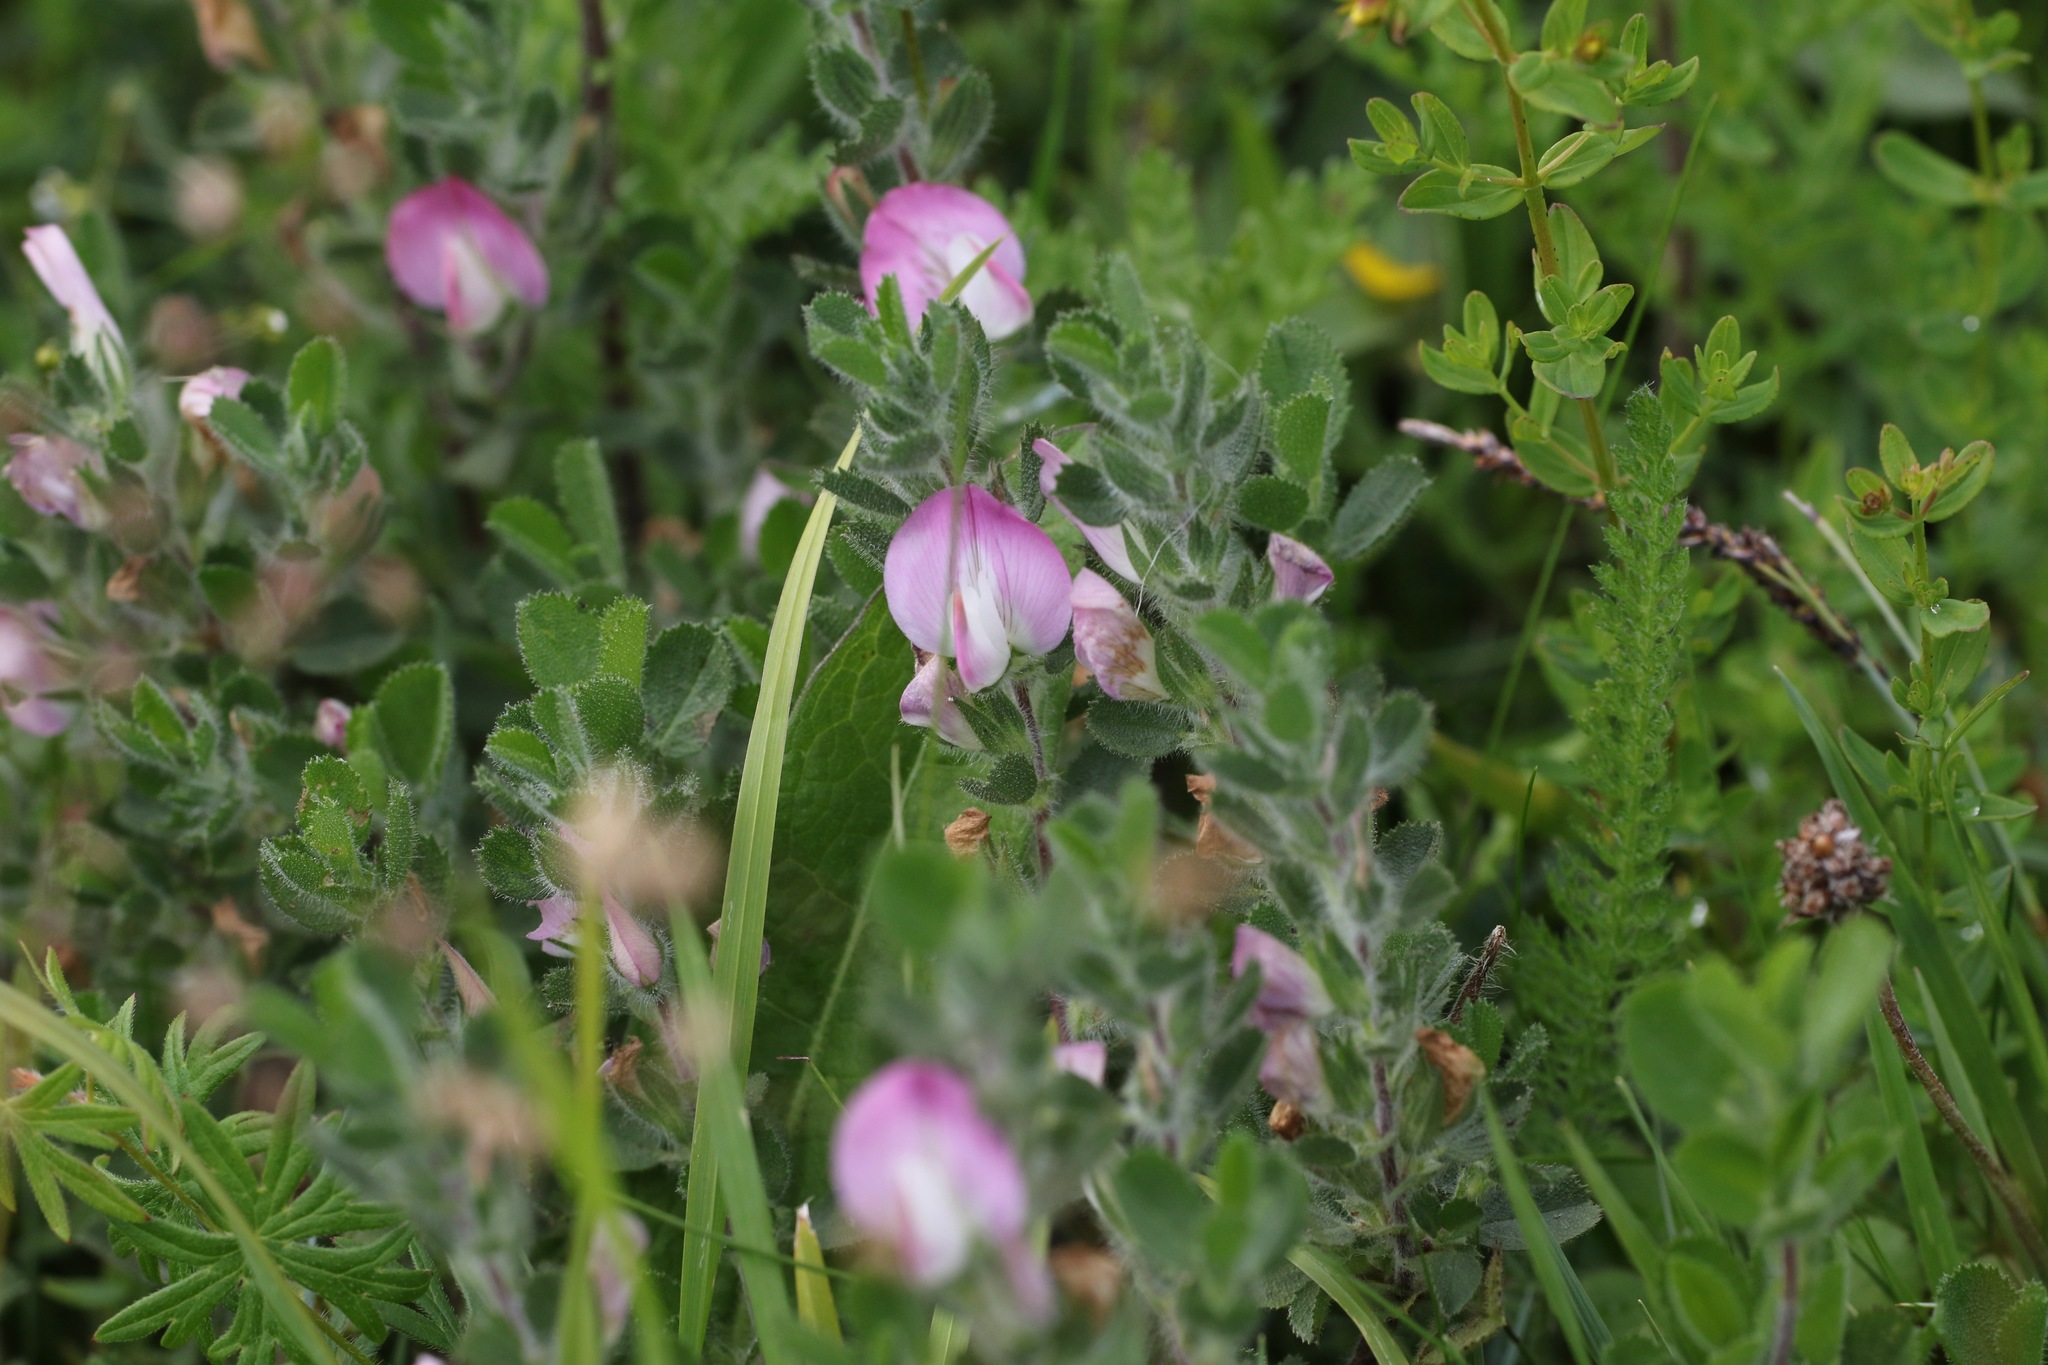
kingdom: Plantae
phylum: Tracheophyta
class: Magnoliopsida
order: Fabales
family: Fabaceae
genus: Ononis
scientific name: Ononis spinosa
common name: Spiny restharrow
